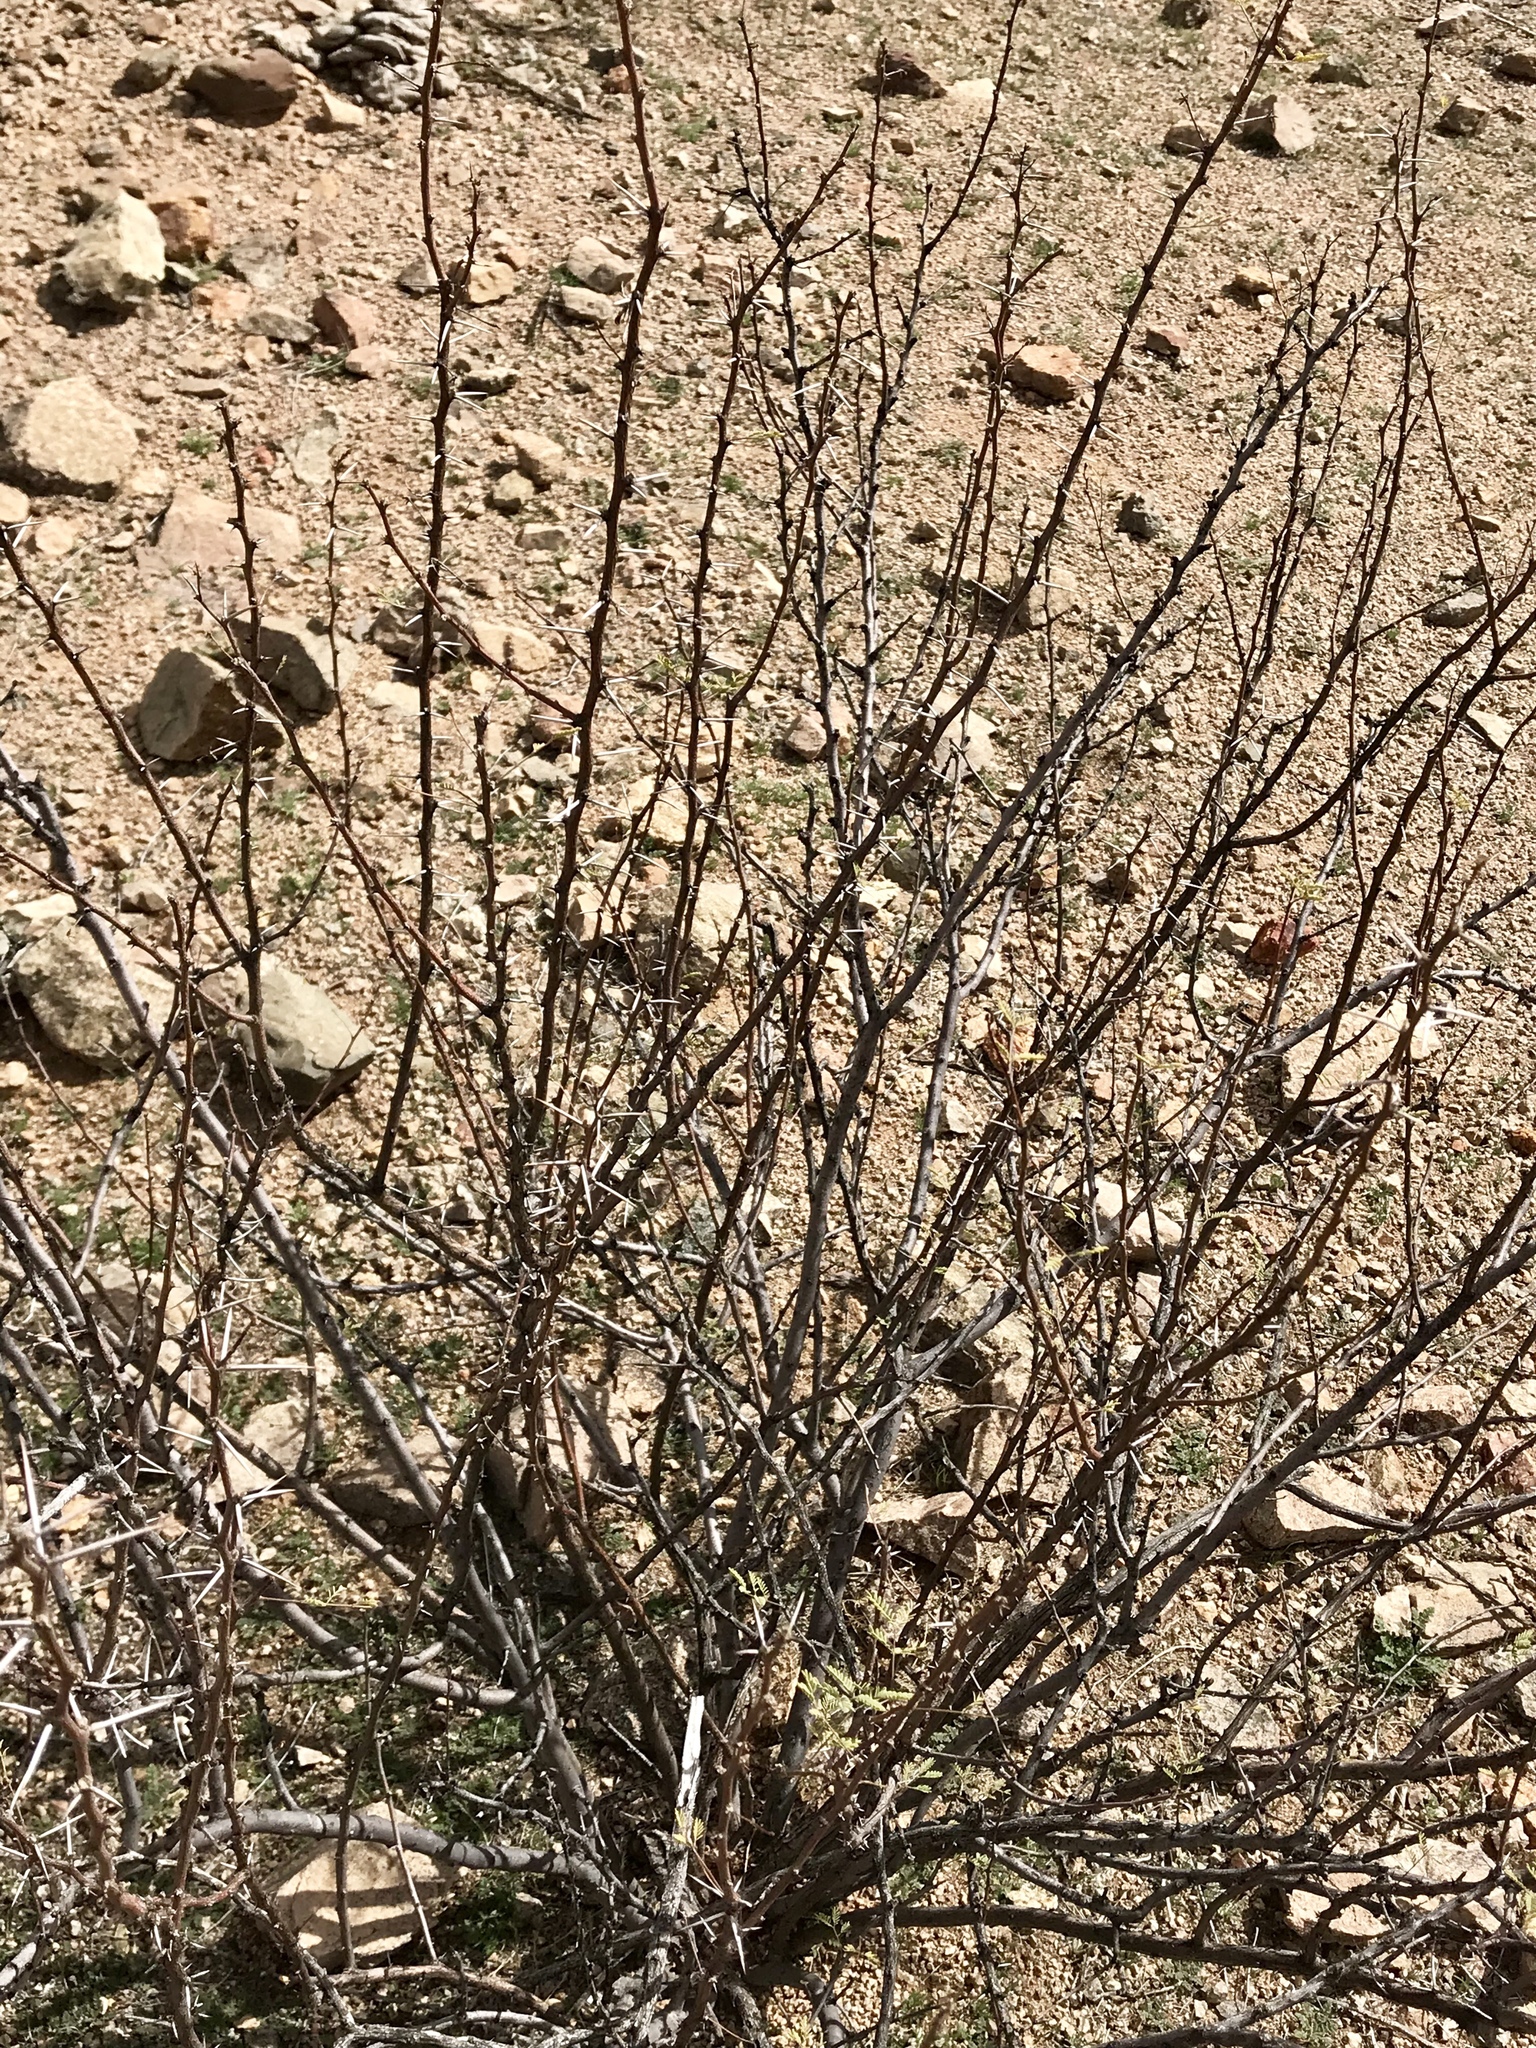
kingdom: Plantae
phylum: Tracheophyta
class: Magnoliopsida
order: Fabales
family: Fabaceae
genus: Vachellia
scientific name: Vachellia constricta
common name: Mescat acacia
